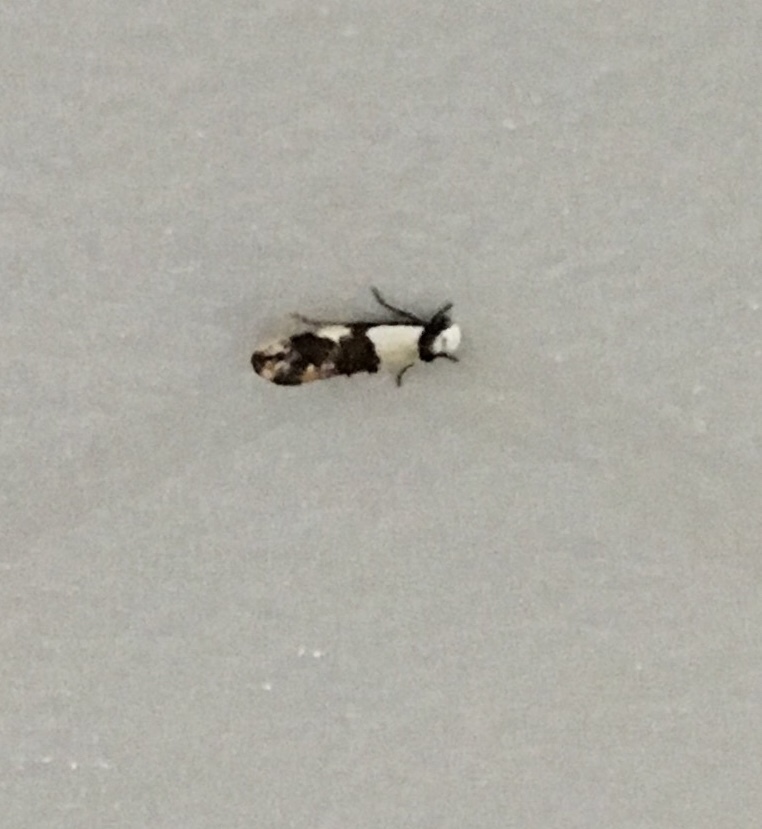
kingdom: Animalia
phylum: Arthropoda
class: Insecta
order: Lepidoptera
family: Tineidae
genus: Monopis
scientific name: Monopis meliorella
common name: Blotched monopis moth
